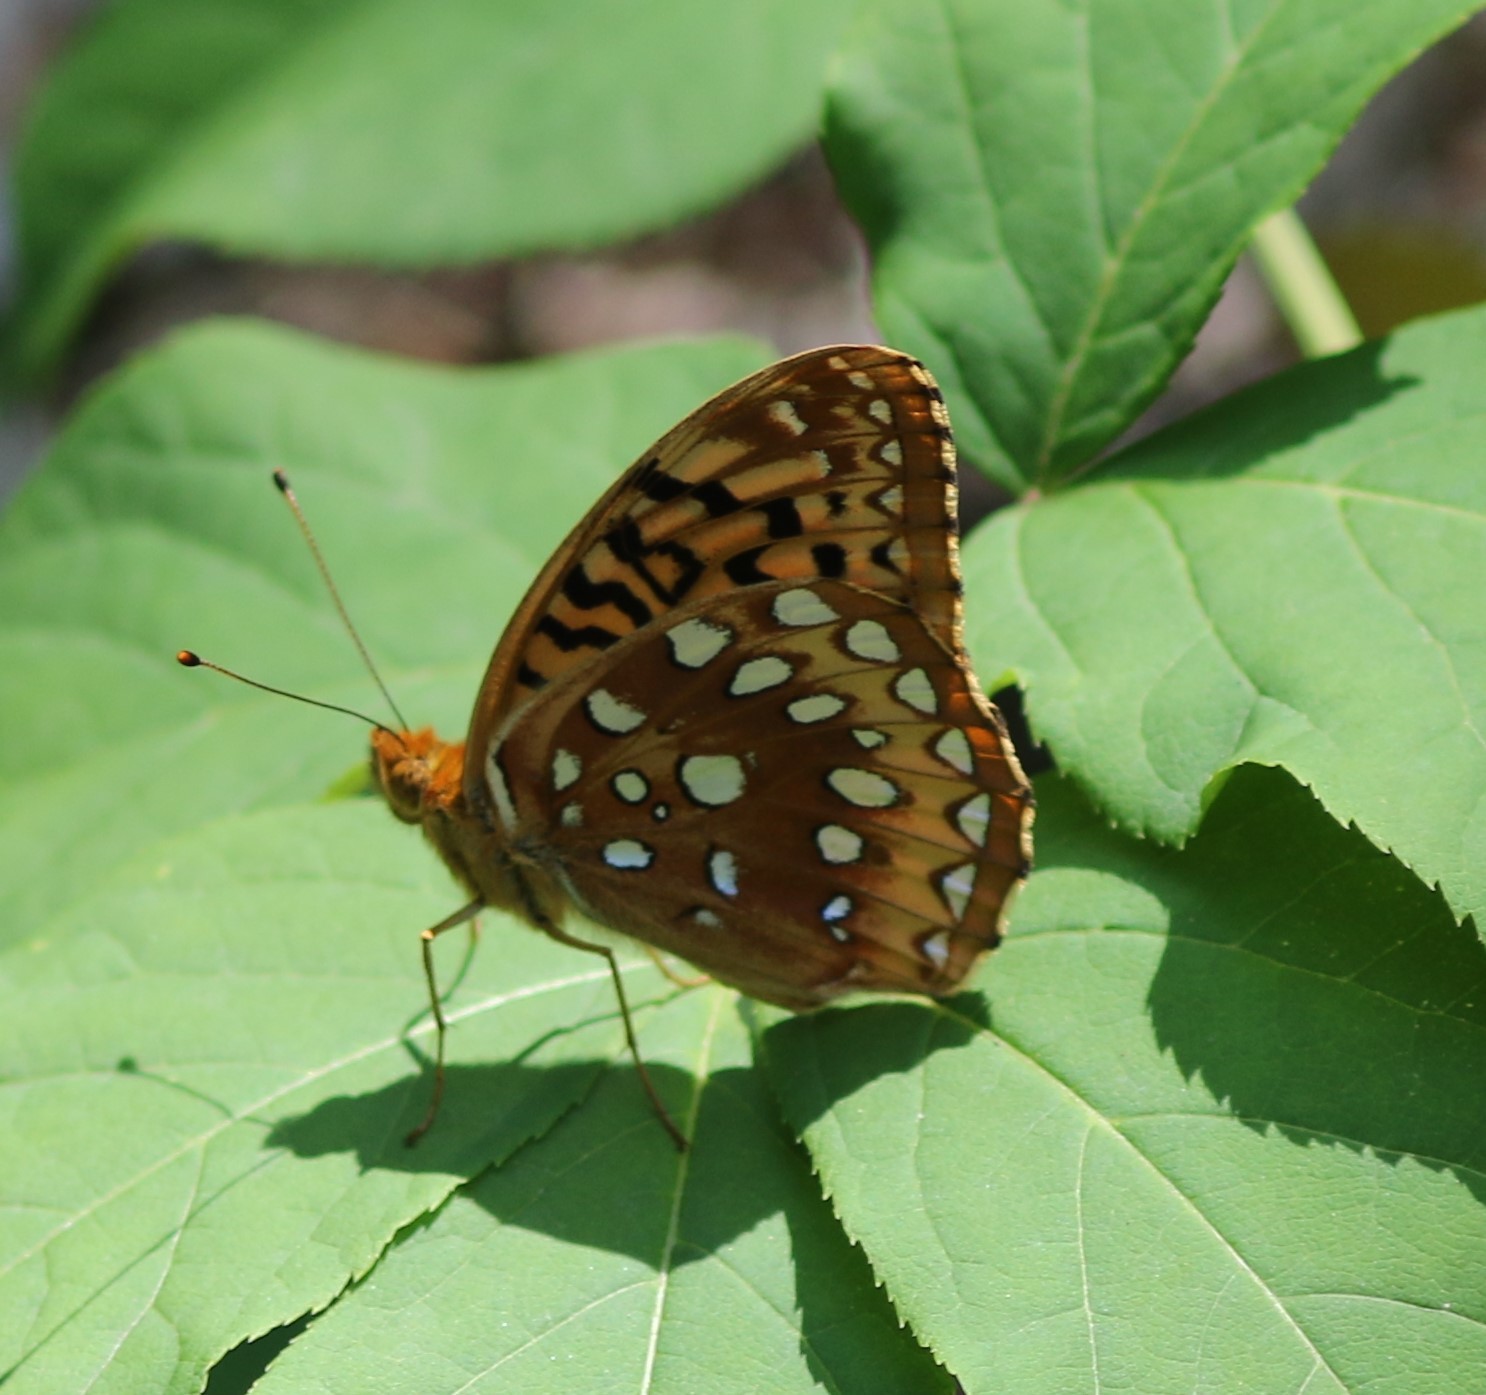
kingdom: Animalia
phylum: Arthropoda
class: Insecta
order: Lepidoptera
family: Nymphalidae
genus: Speyeria
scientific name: Speyeria cybele
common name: Great spangled fritillary
